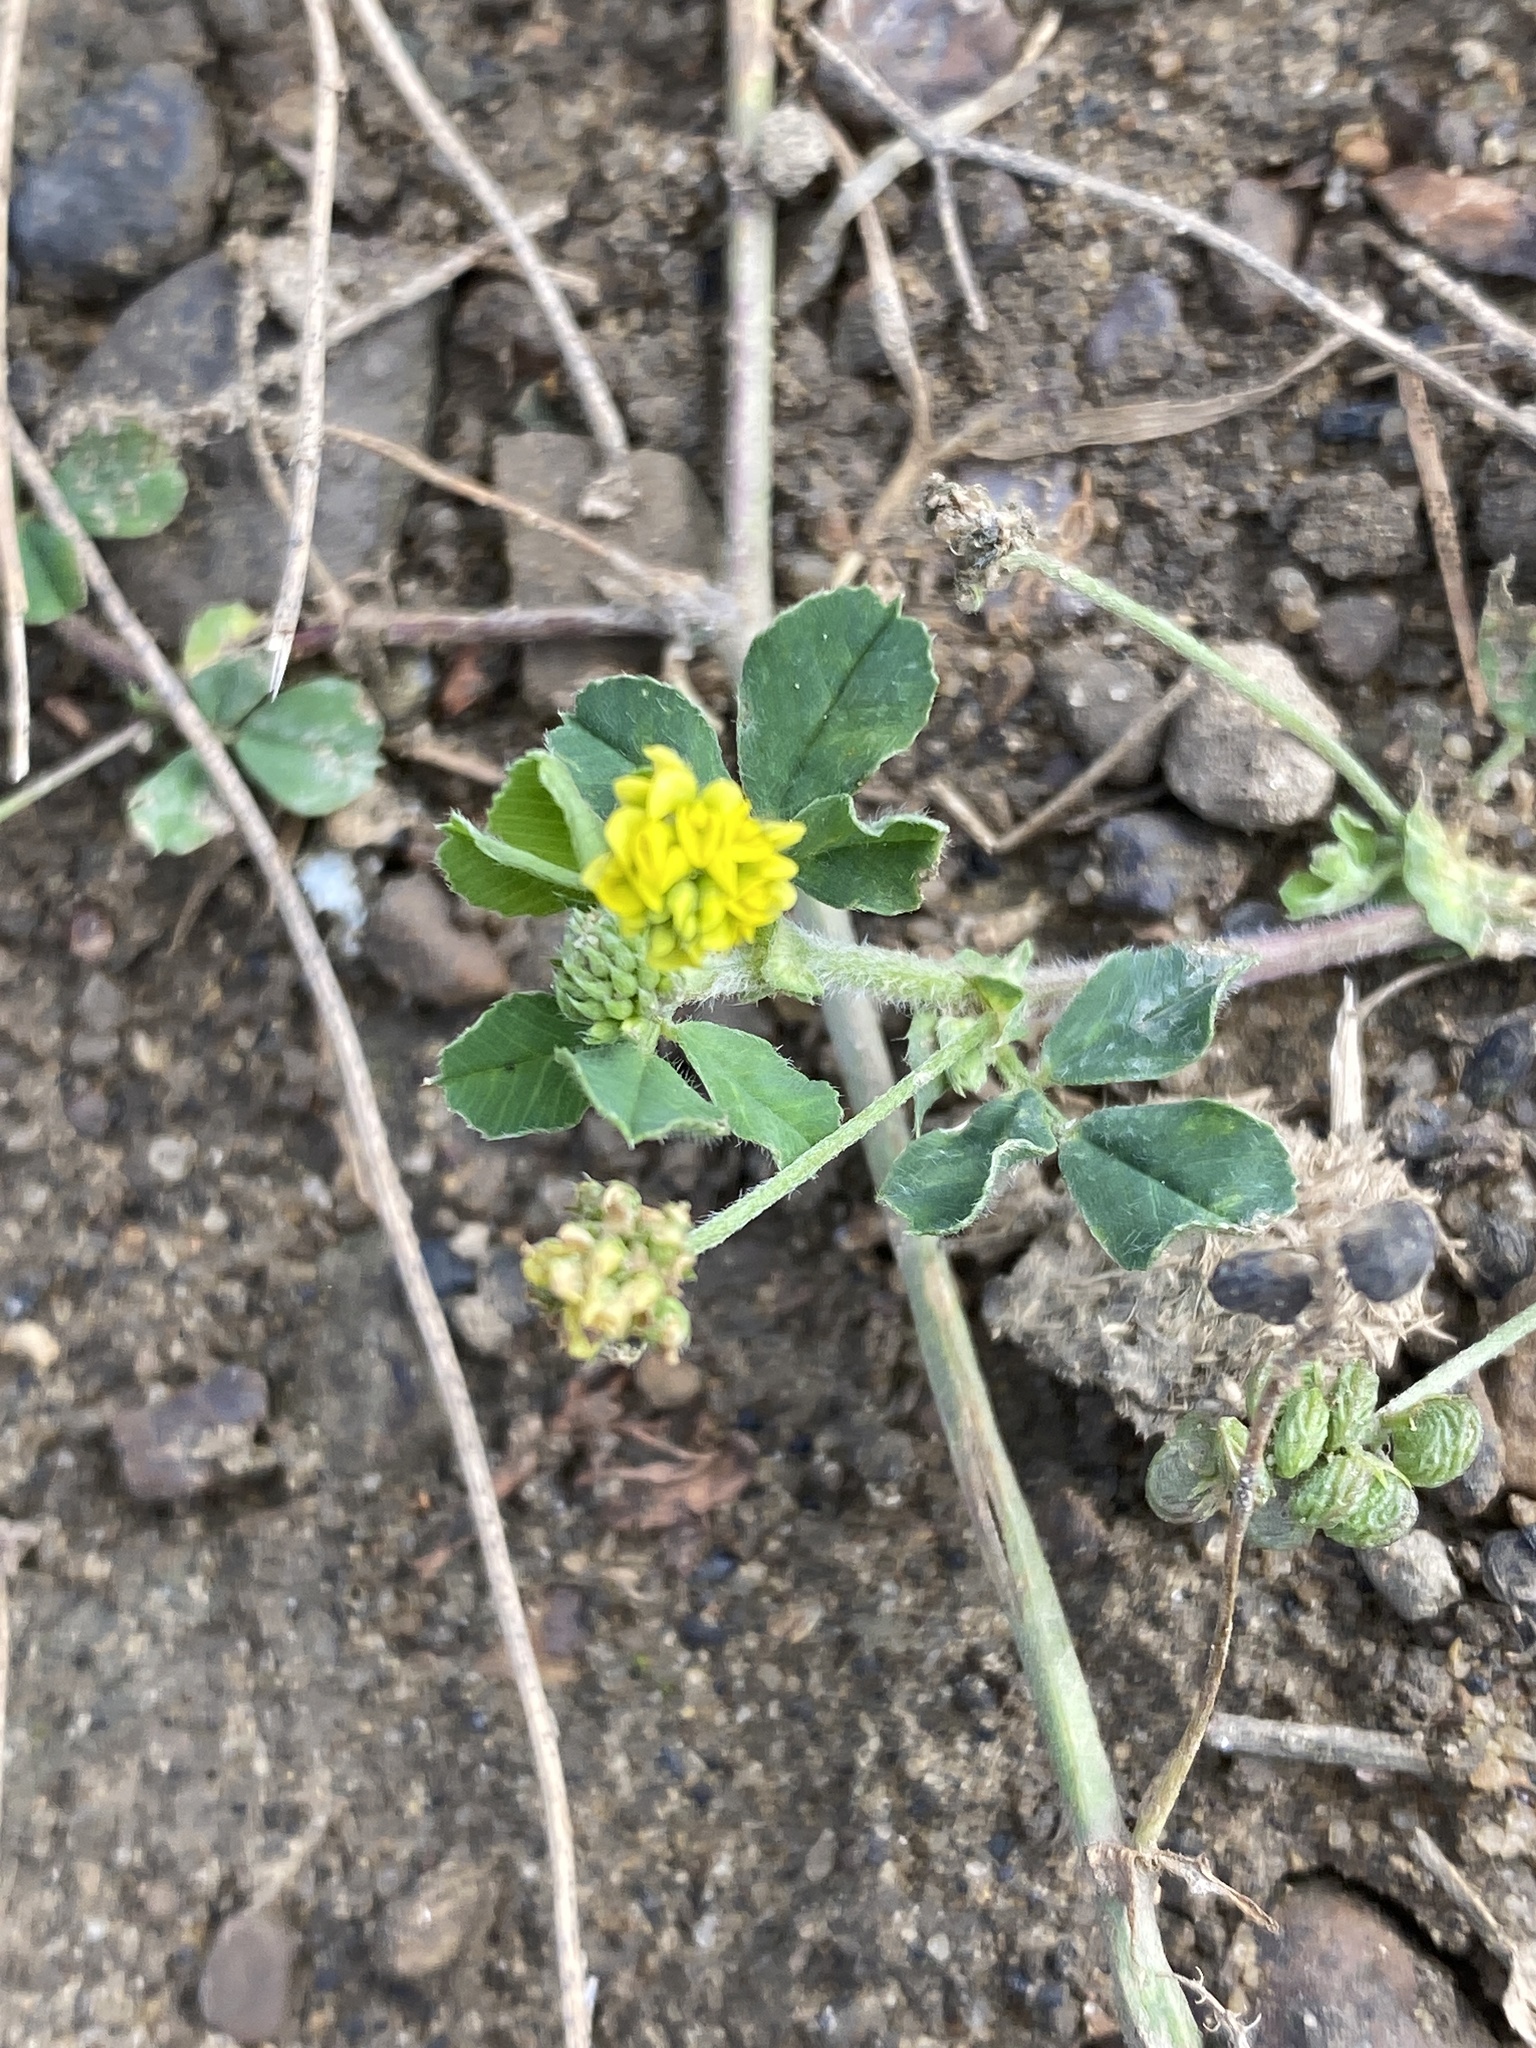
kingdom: Plantae
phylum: Tracheophyta
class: Magnoliopsida
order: Fabales
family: Fabaceae
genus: Medicago
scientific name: Medicago lupulina
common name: Black medick
